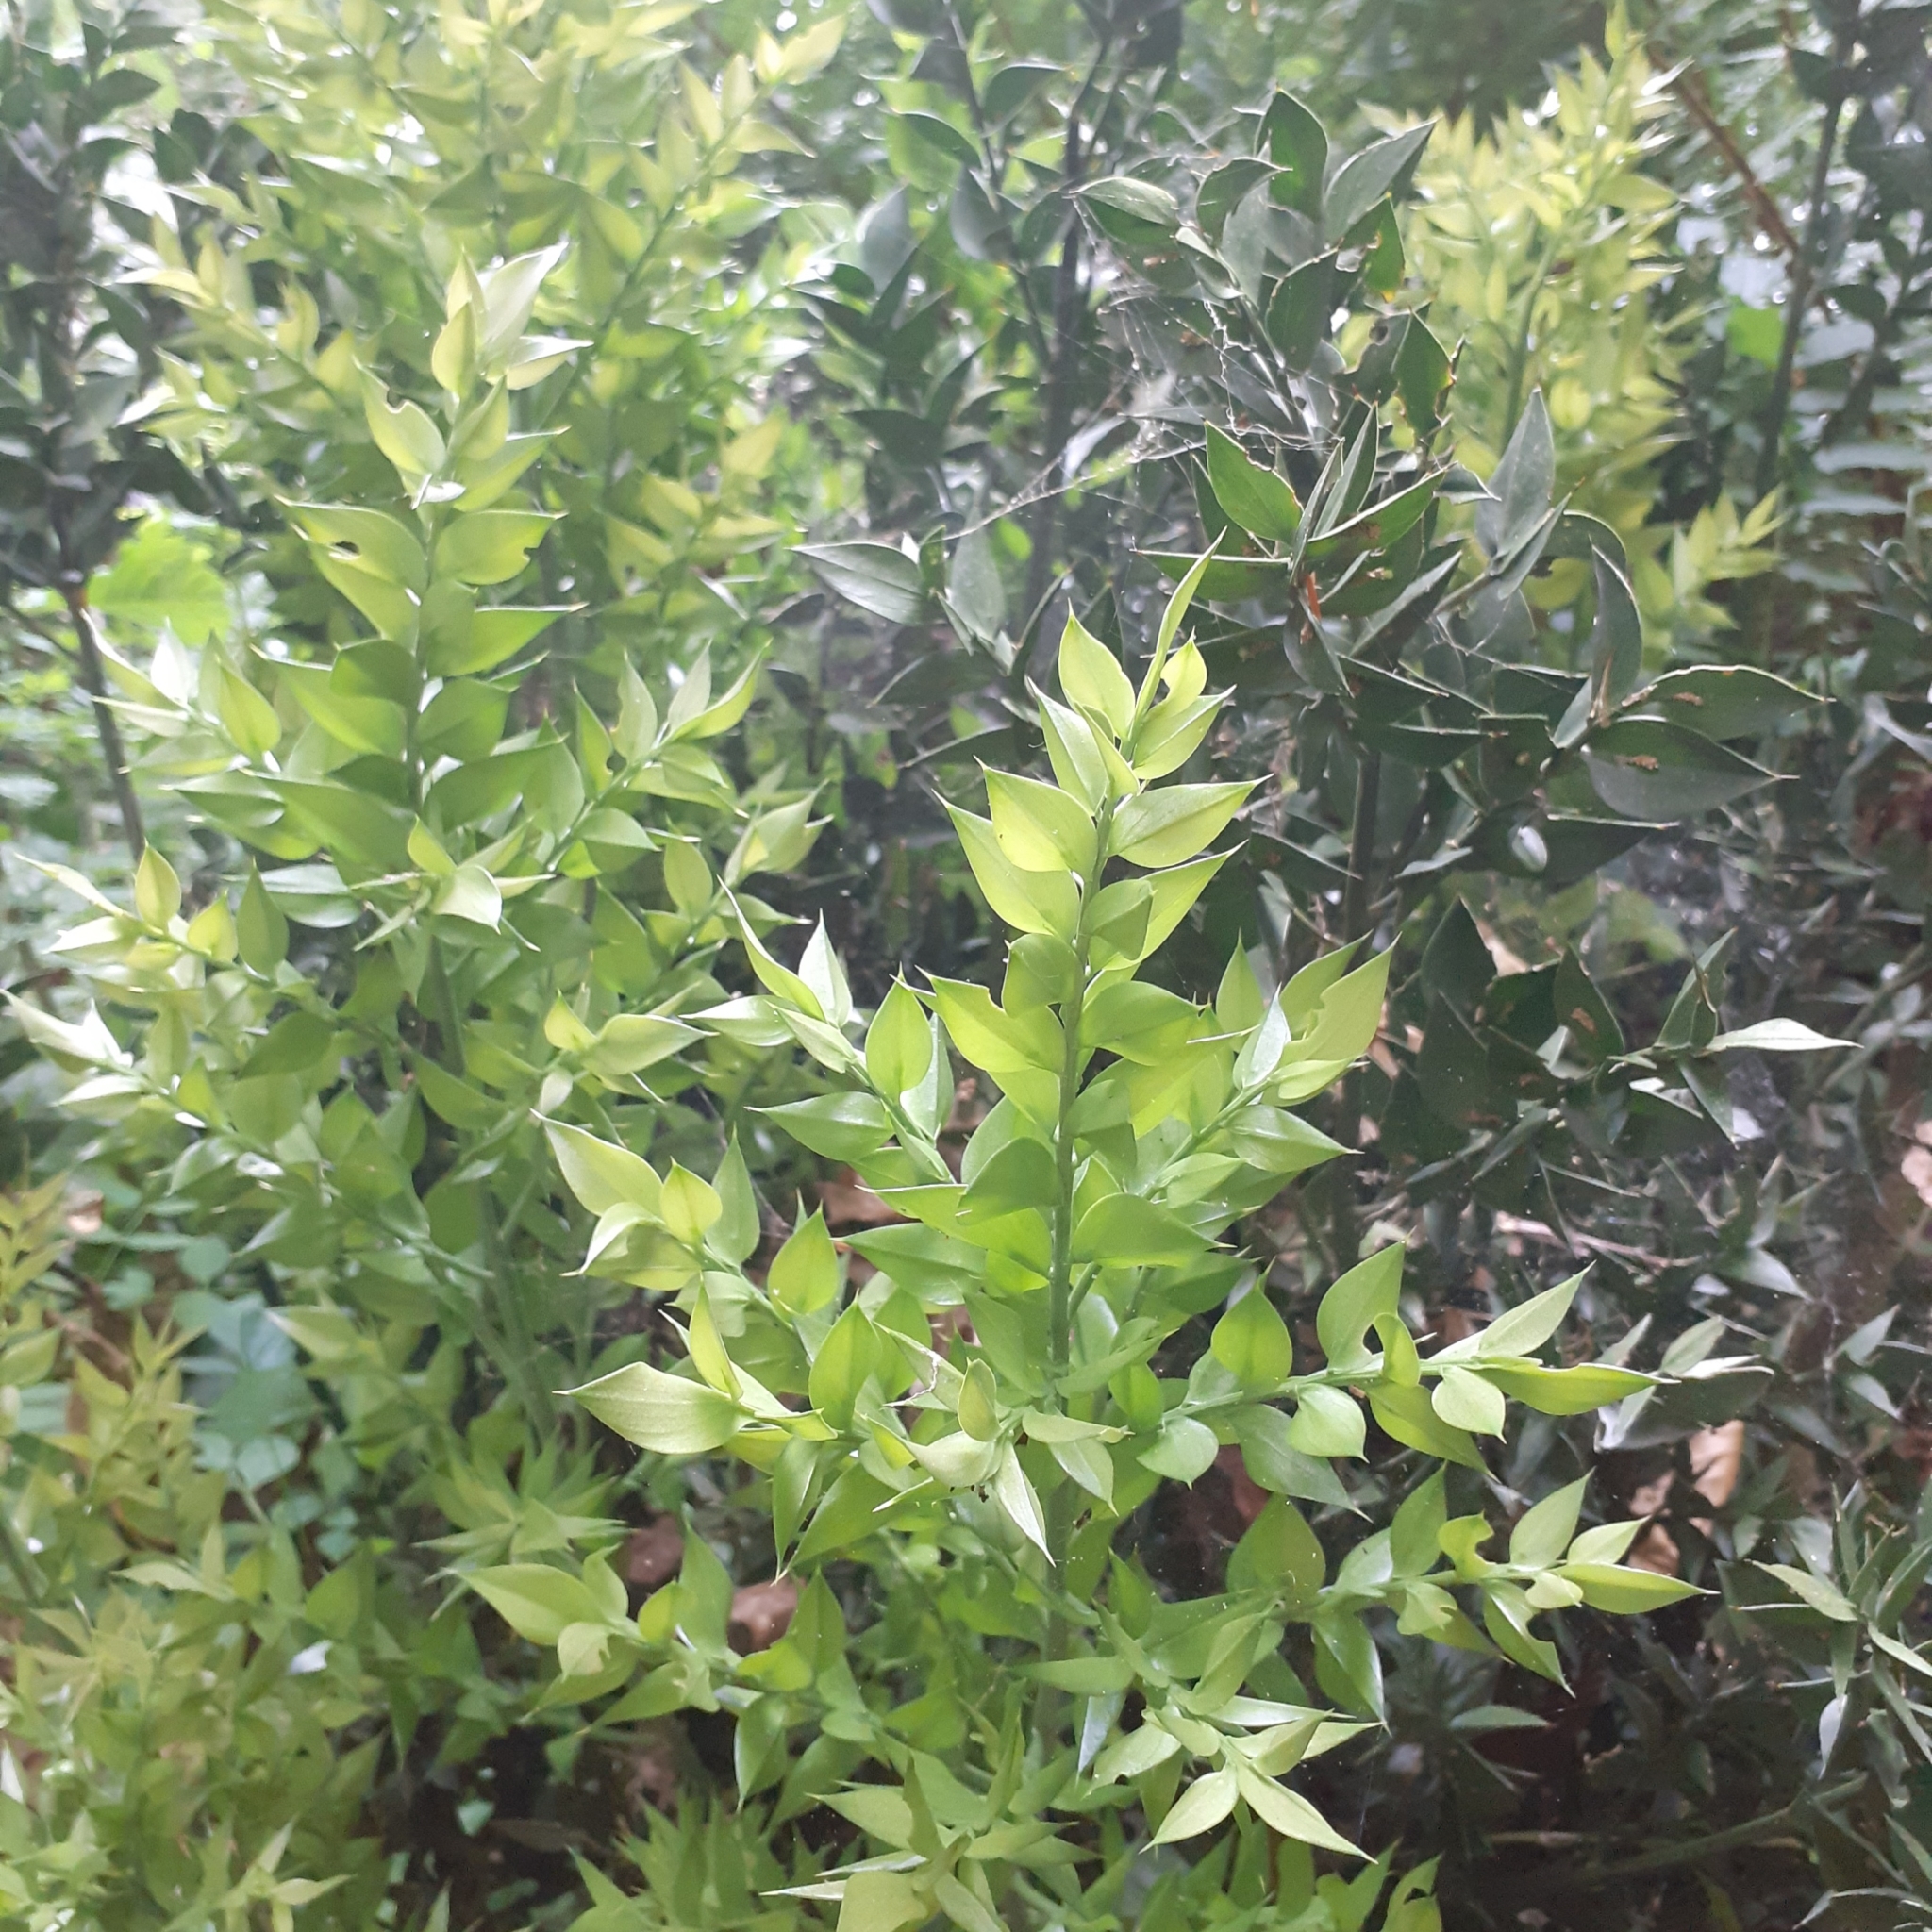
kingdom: Plantae
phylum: Tracheophyta
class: Liliopsida
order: Asparagales
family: Asparagaceae
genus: Ruscus
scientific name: Ruscus aculeatus
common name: Butcher's-broom
